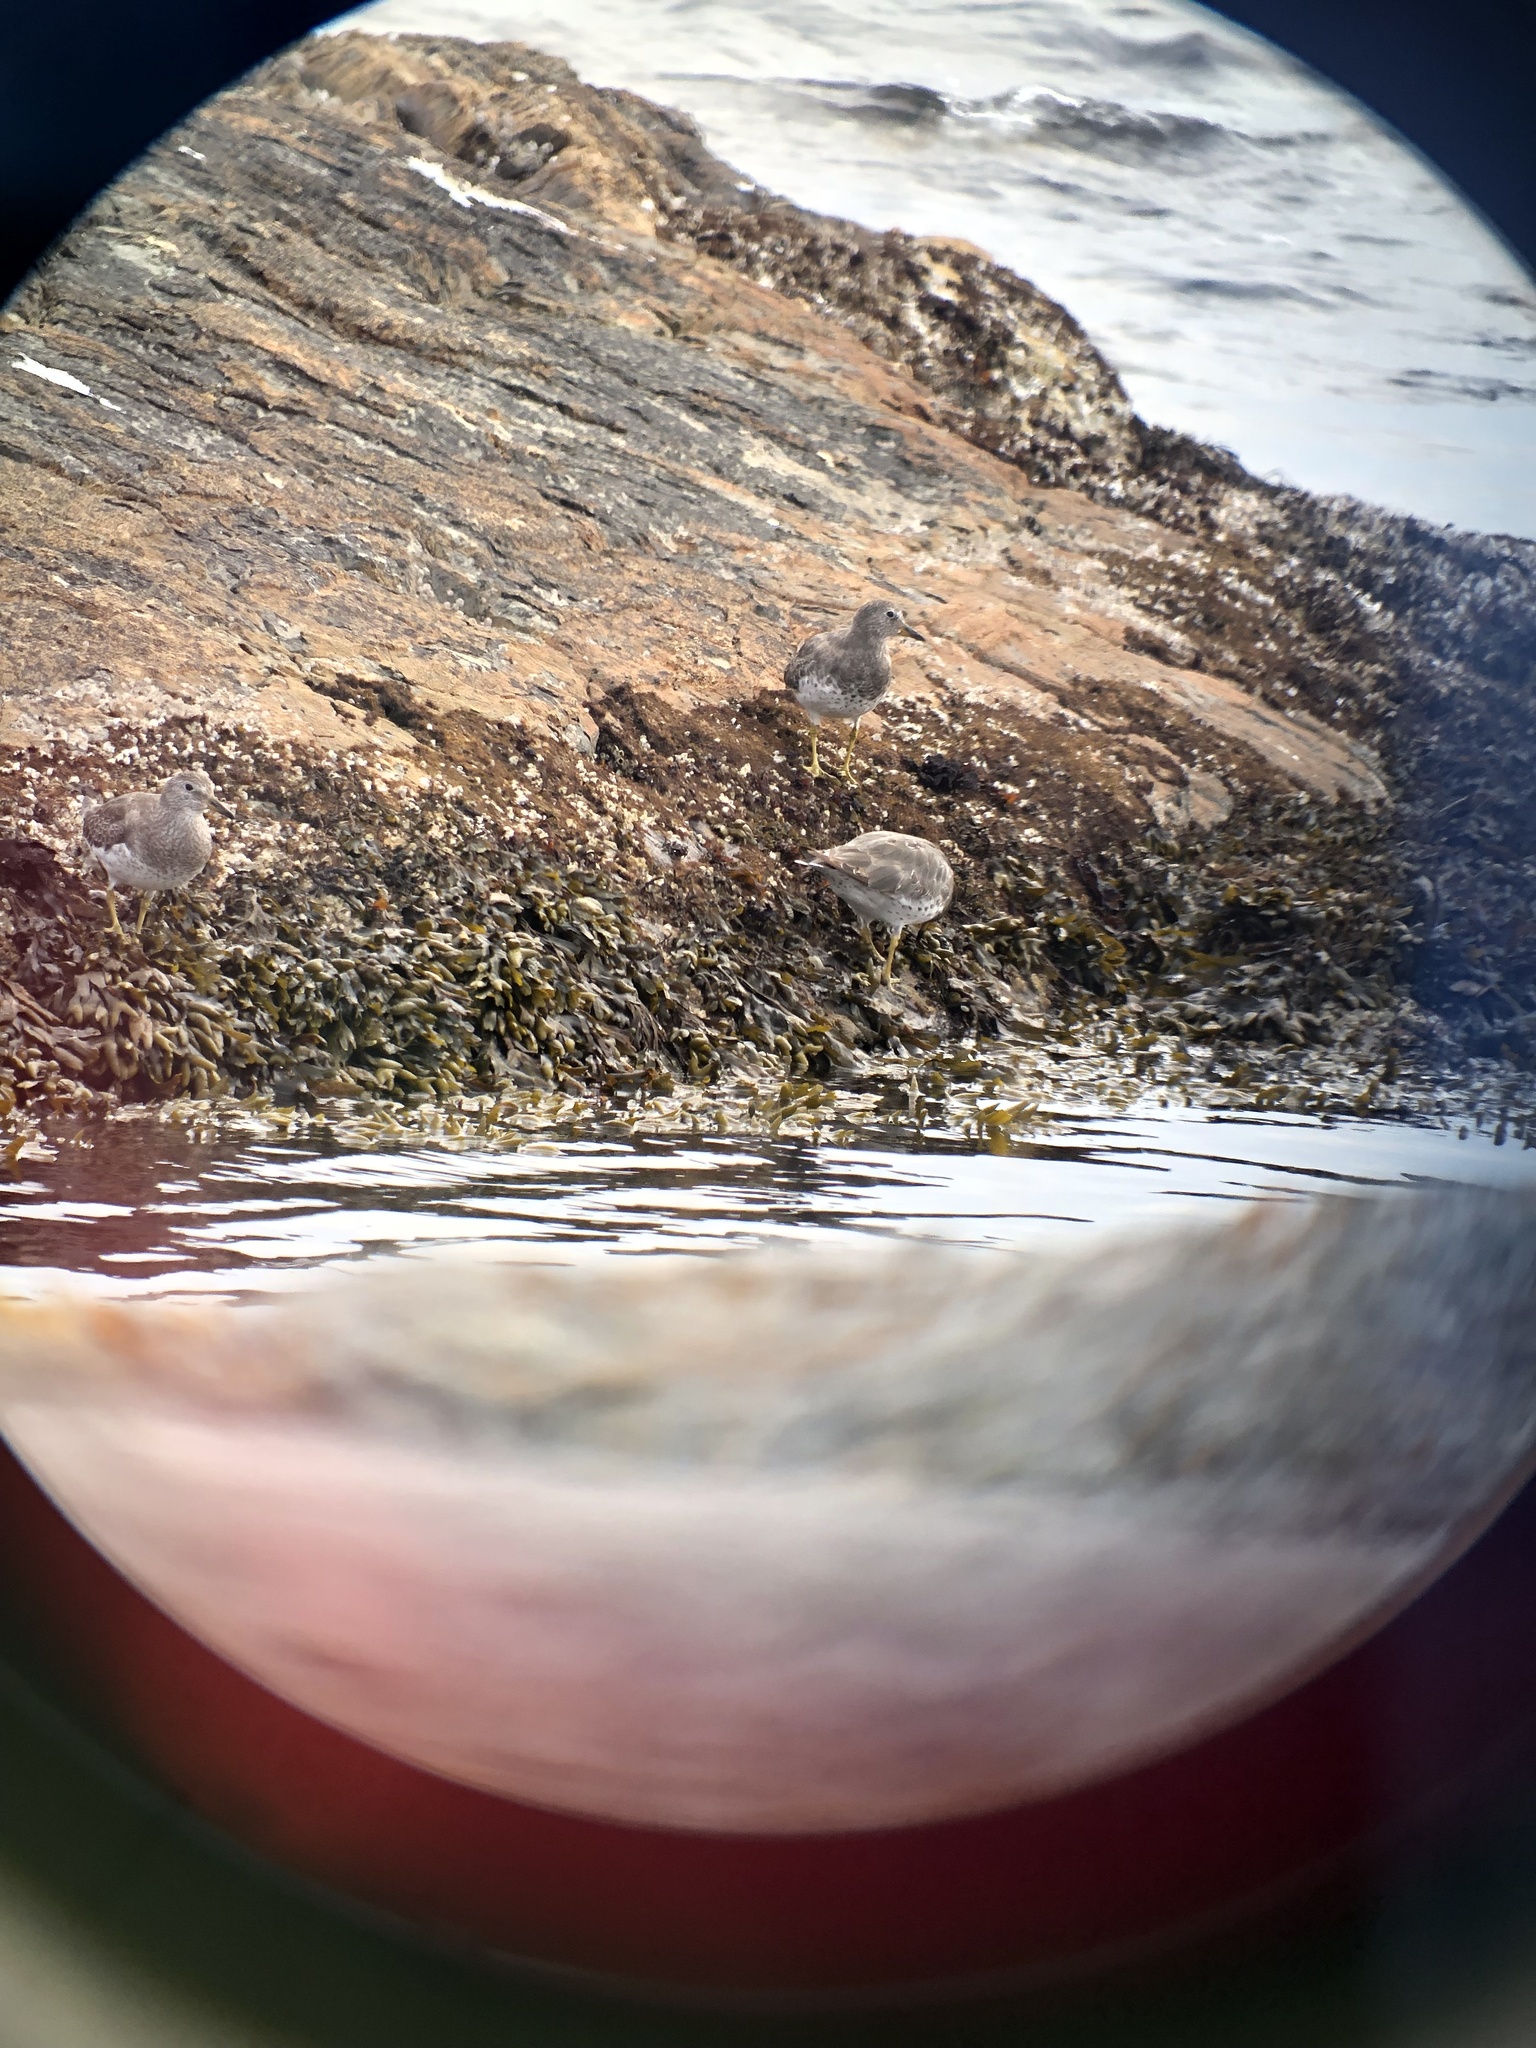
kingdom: Animalia
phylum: Chordata
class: Aves
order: Charadriiformes
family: Scolopacidae
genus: Calidris
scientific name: Calidris virgata
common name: Surfbird
